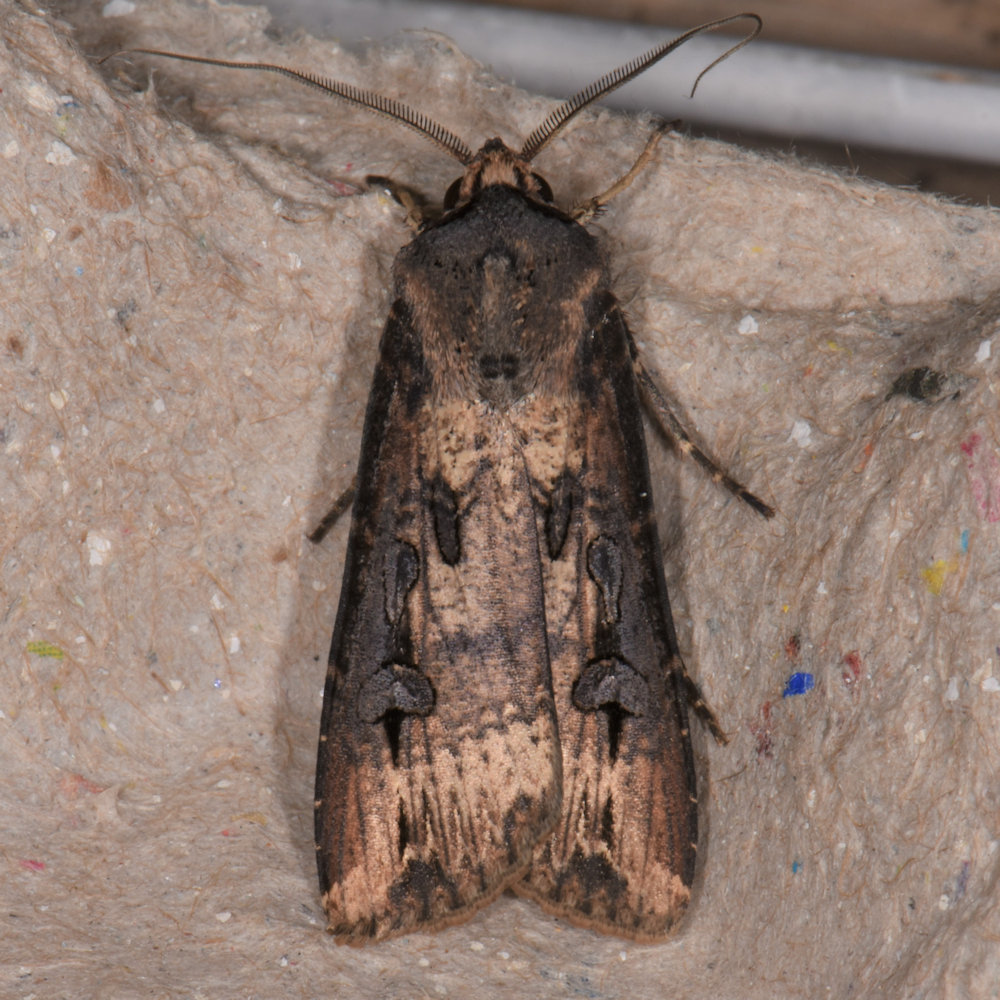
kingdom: Animalia
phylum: Arthropoda
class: Insecta
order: Lepidoptera
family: Noctuidae
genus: Agrotis
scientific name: Agrotis ipsilon
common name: Dark sword-grass
